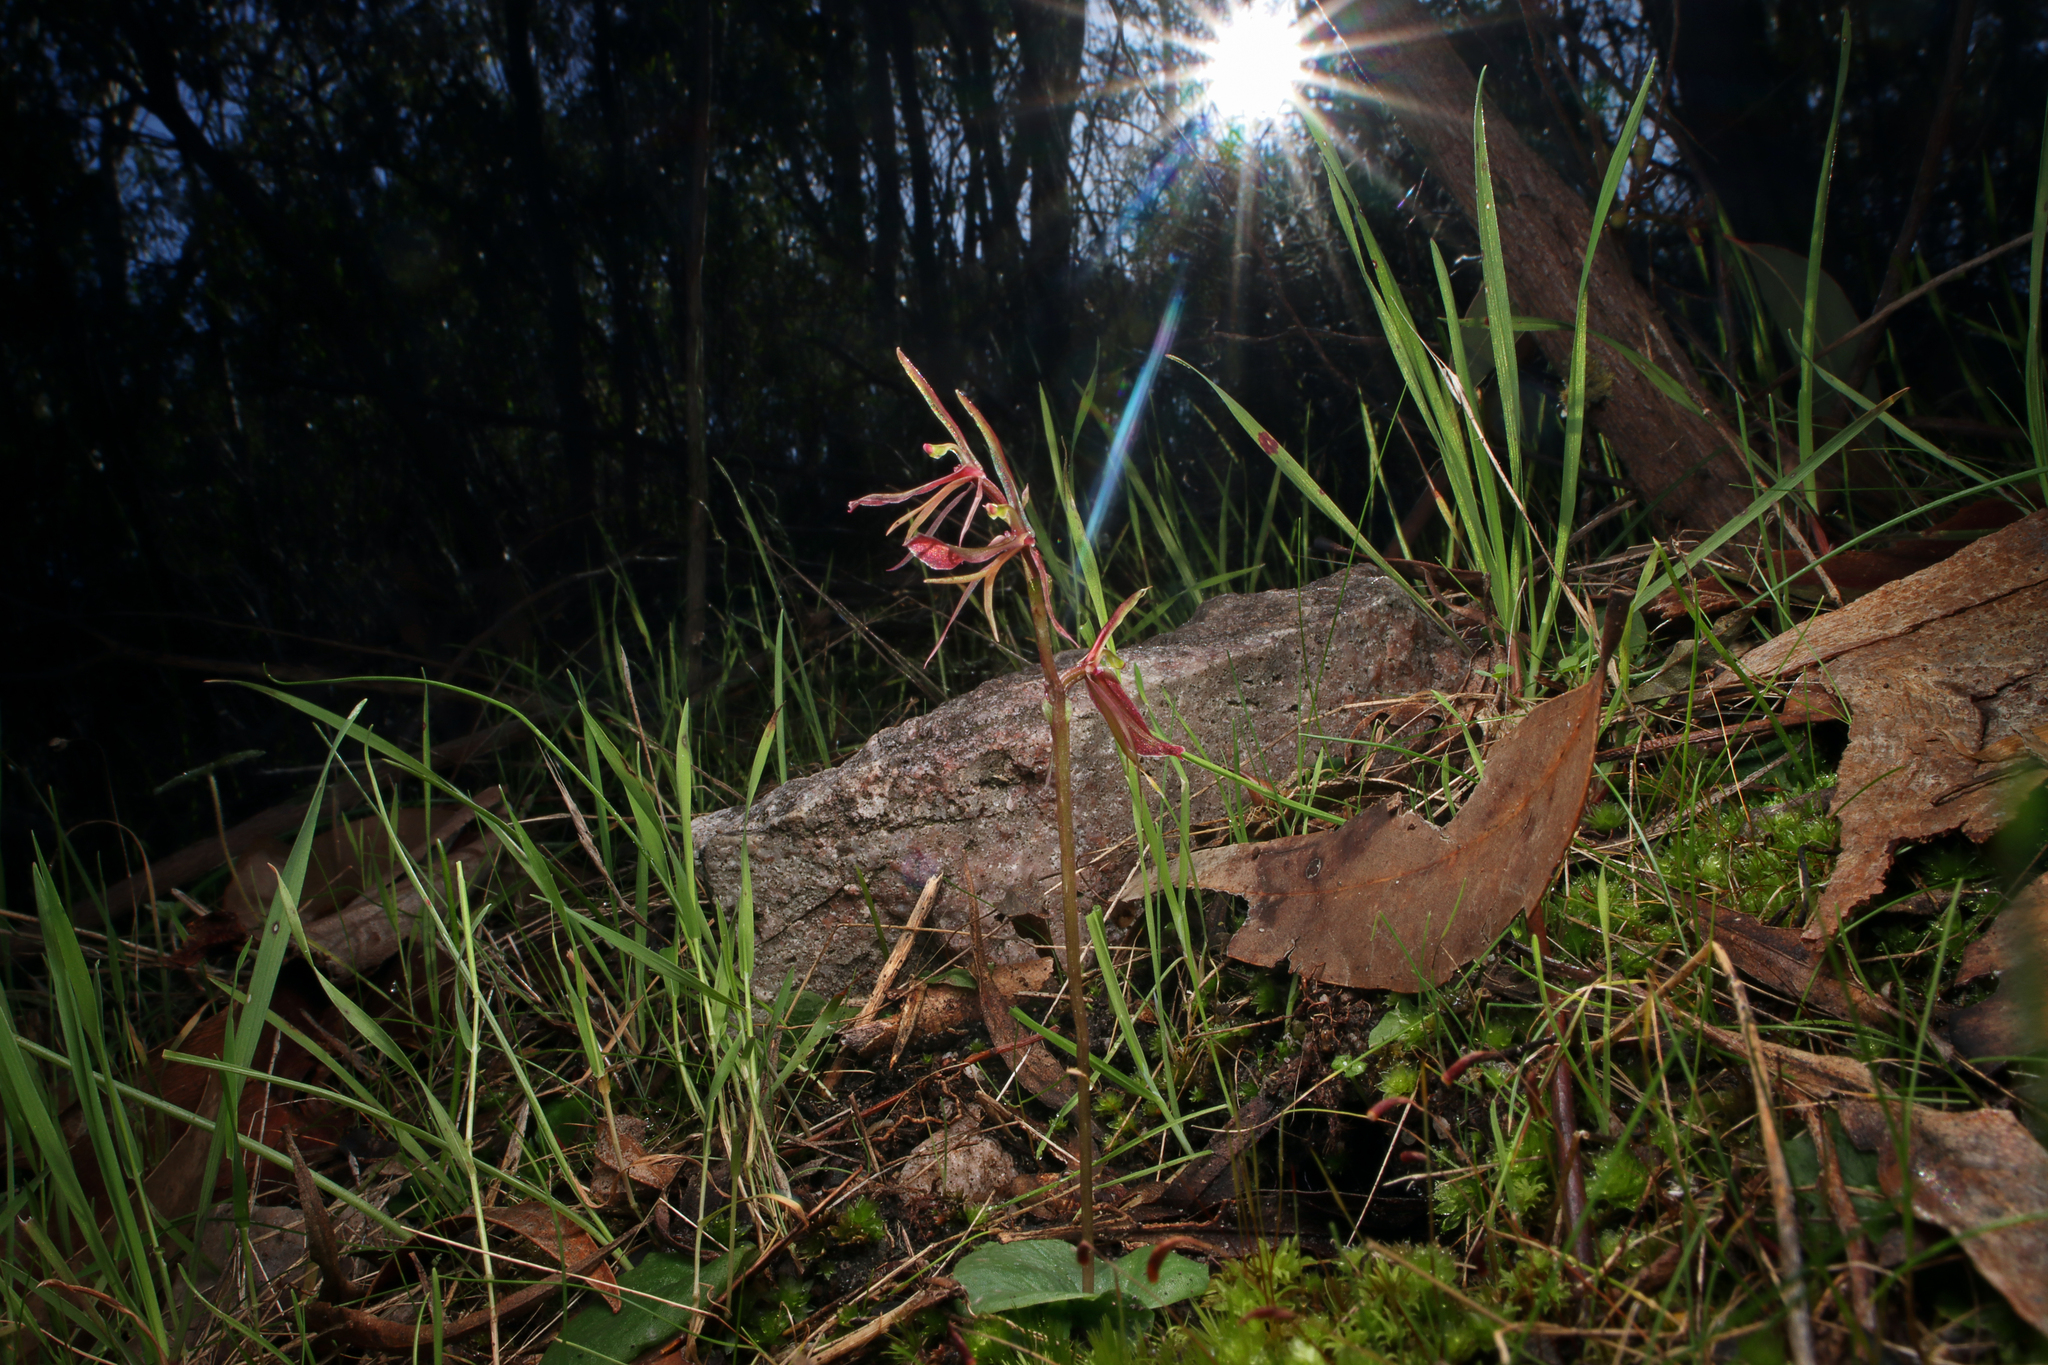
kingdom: Plantae
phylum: Tracheophyta
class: Liliopsida
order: Asparagales
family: Orchidaceae
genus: Cyrtostylis
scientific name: Cyrtostylis robusta
